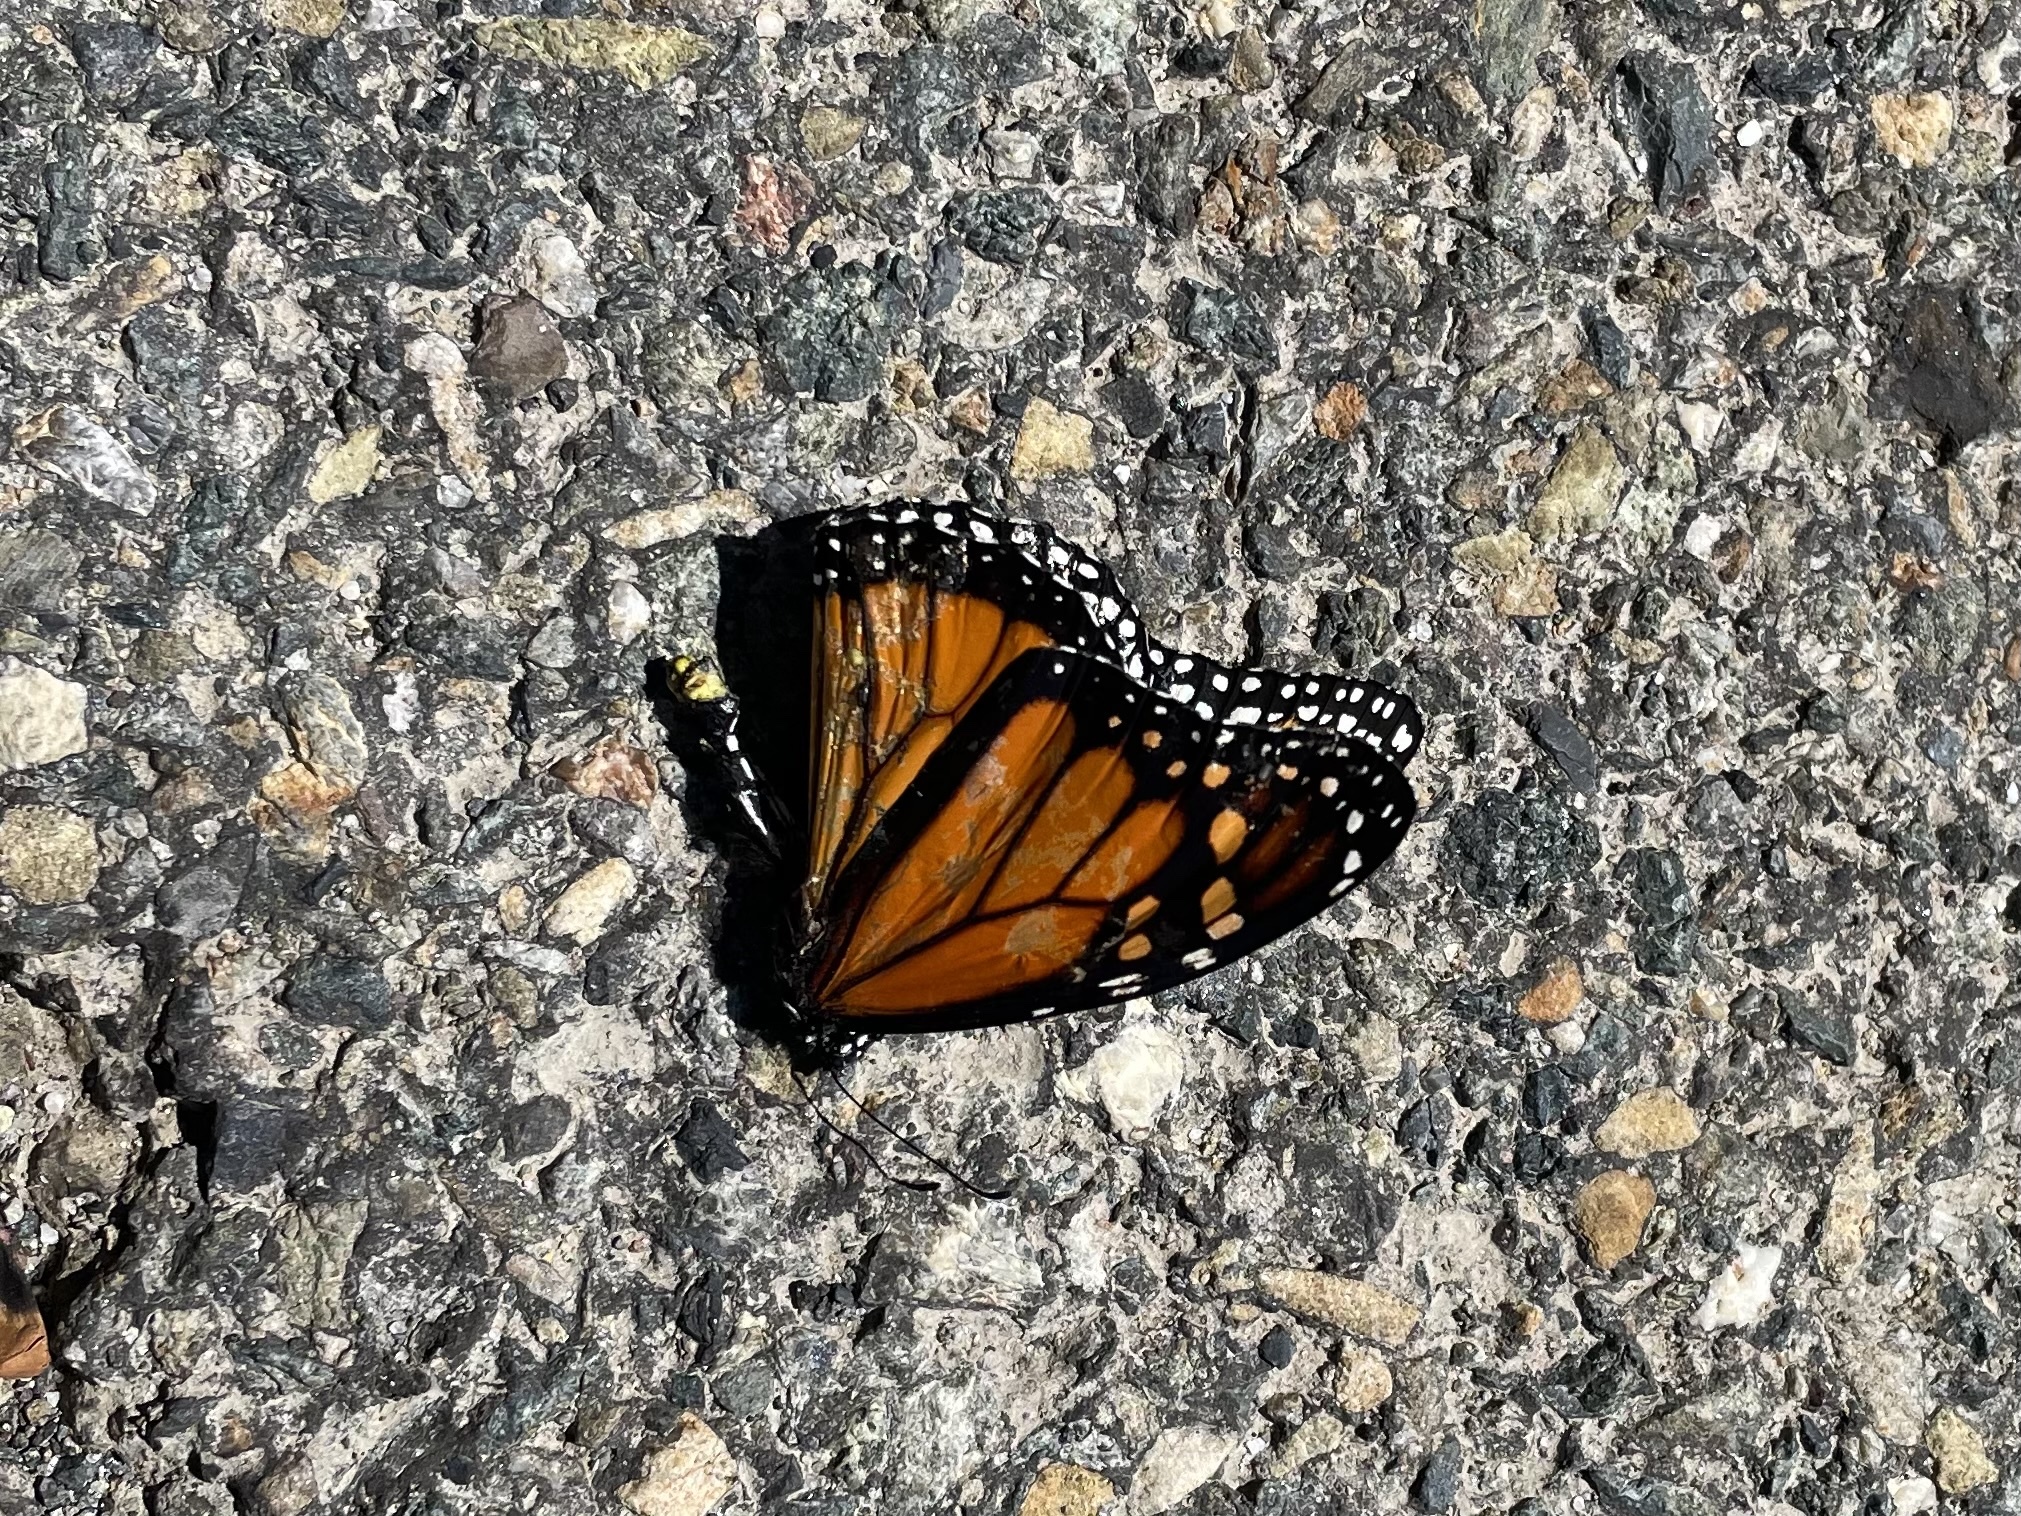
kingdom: Animalia
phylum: Arthropoda
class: Insecta
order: Lepidoptera
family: Nymphalidae
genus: Danaus
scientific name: Danaus plexippus
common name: Monarch
